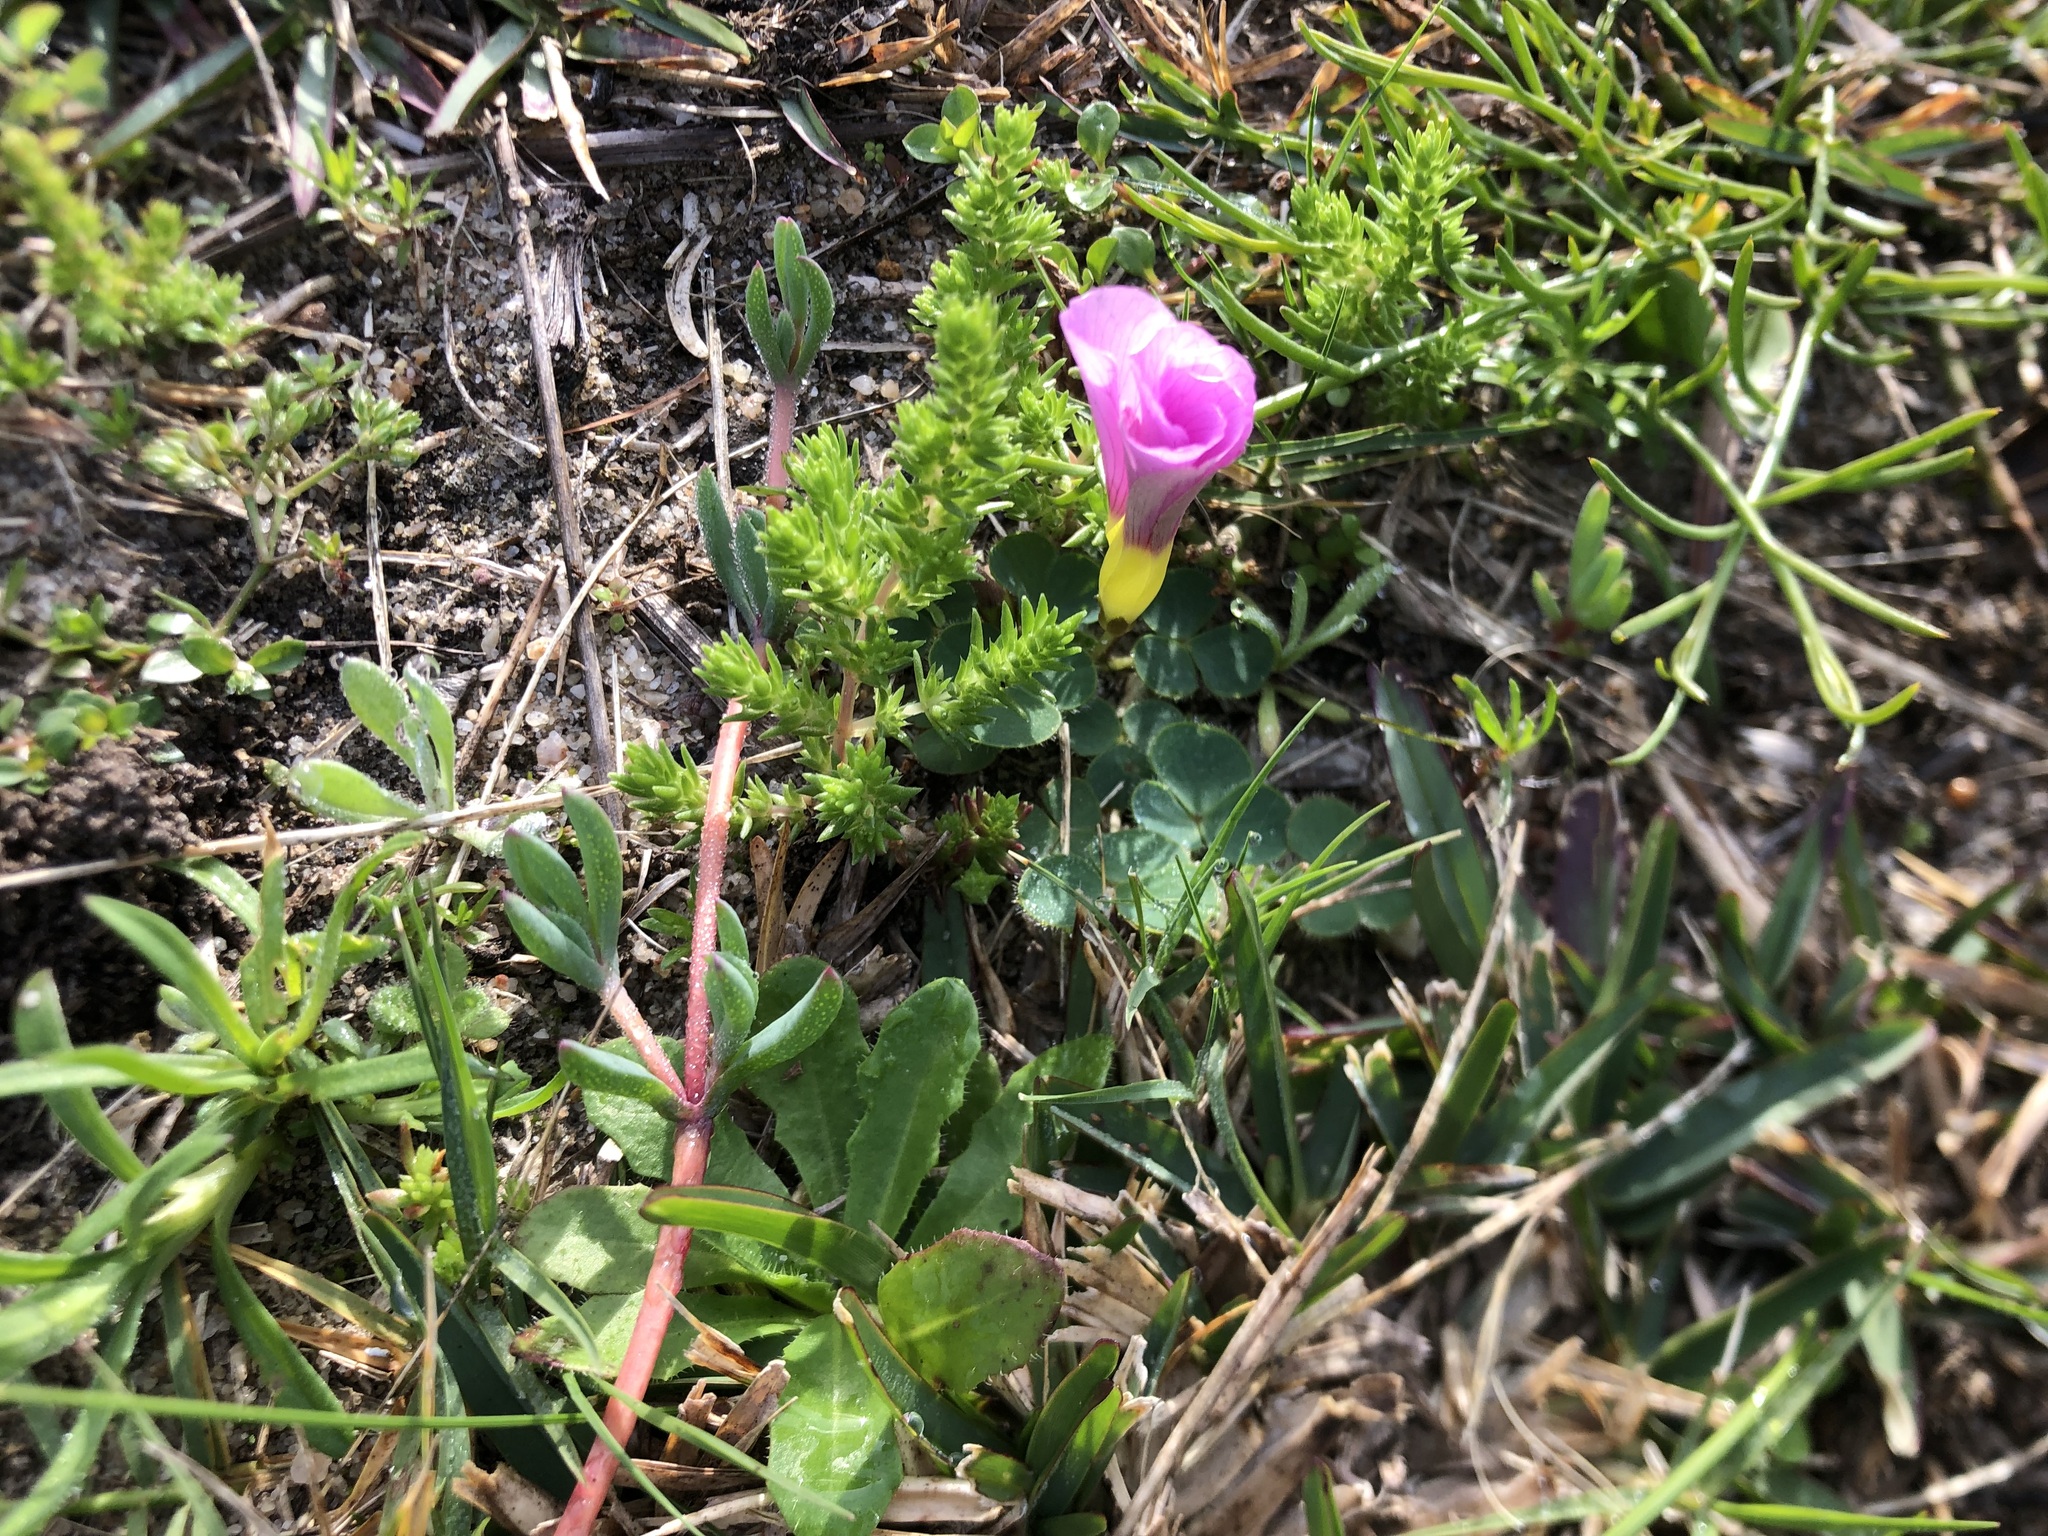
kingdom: Plantae
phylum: Tracheophyta
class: Magnoliopsida
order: Oxalidales
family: Oxalidaceae
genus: Oxalis
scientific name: Oxalis purpurea
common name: Purple woodsorrel
